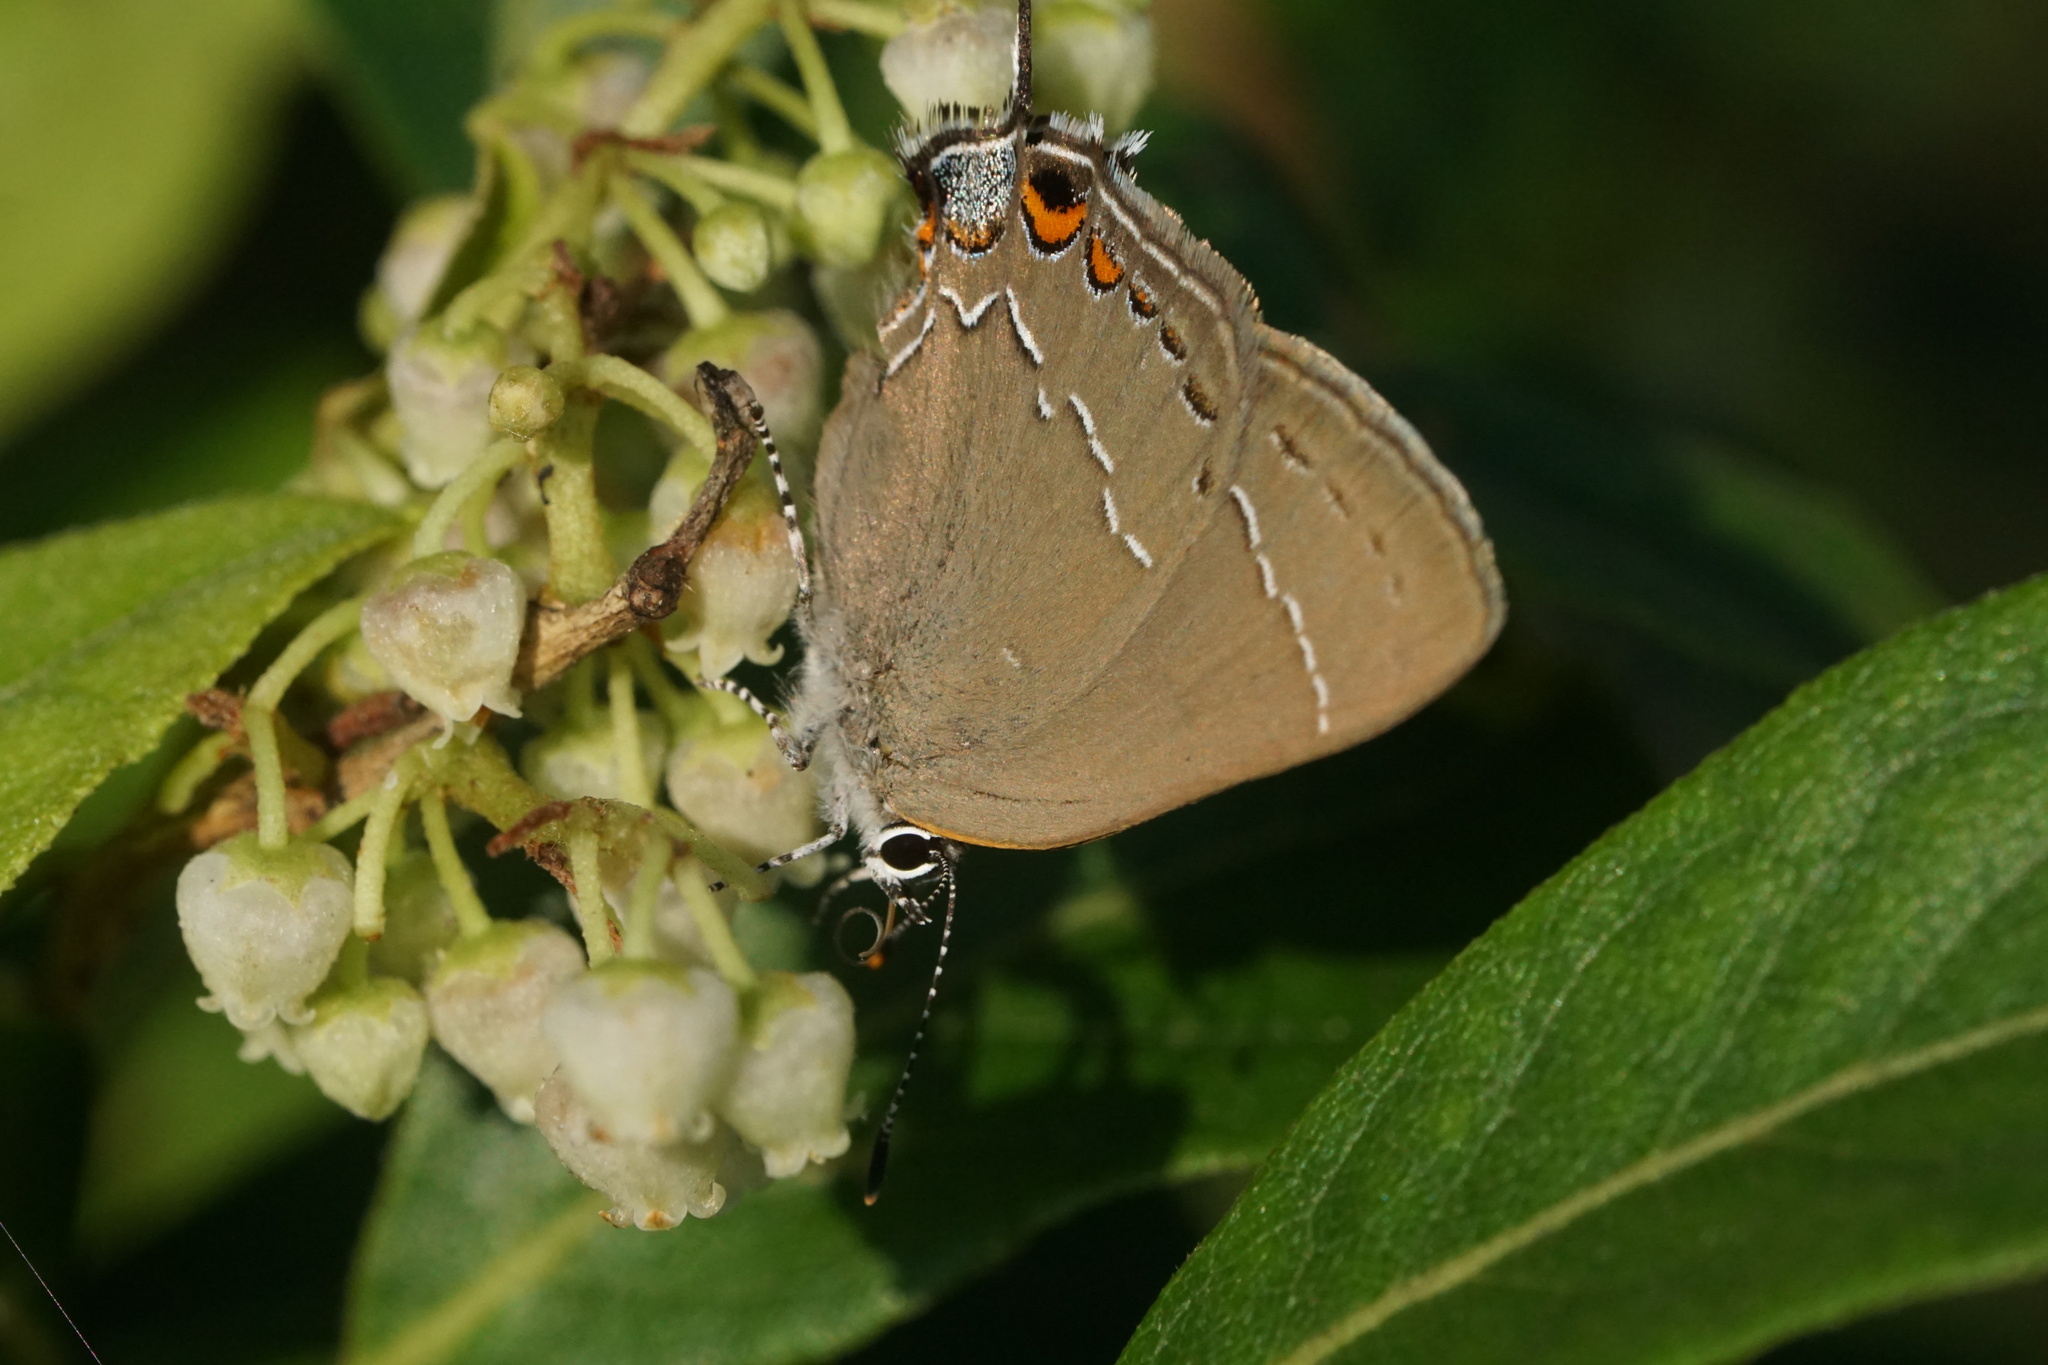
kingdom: Animalia
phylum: Arthropoda
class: Insecta
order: Lepidoptera
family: Lycaenidae
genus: Fixsenia
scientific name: Fixsenia favonius
